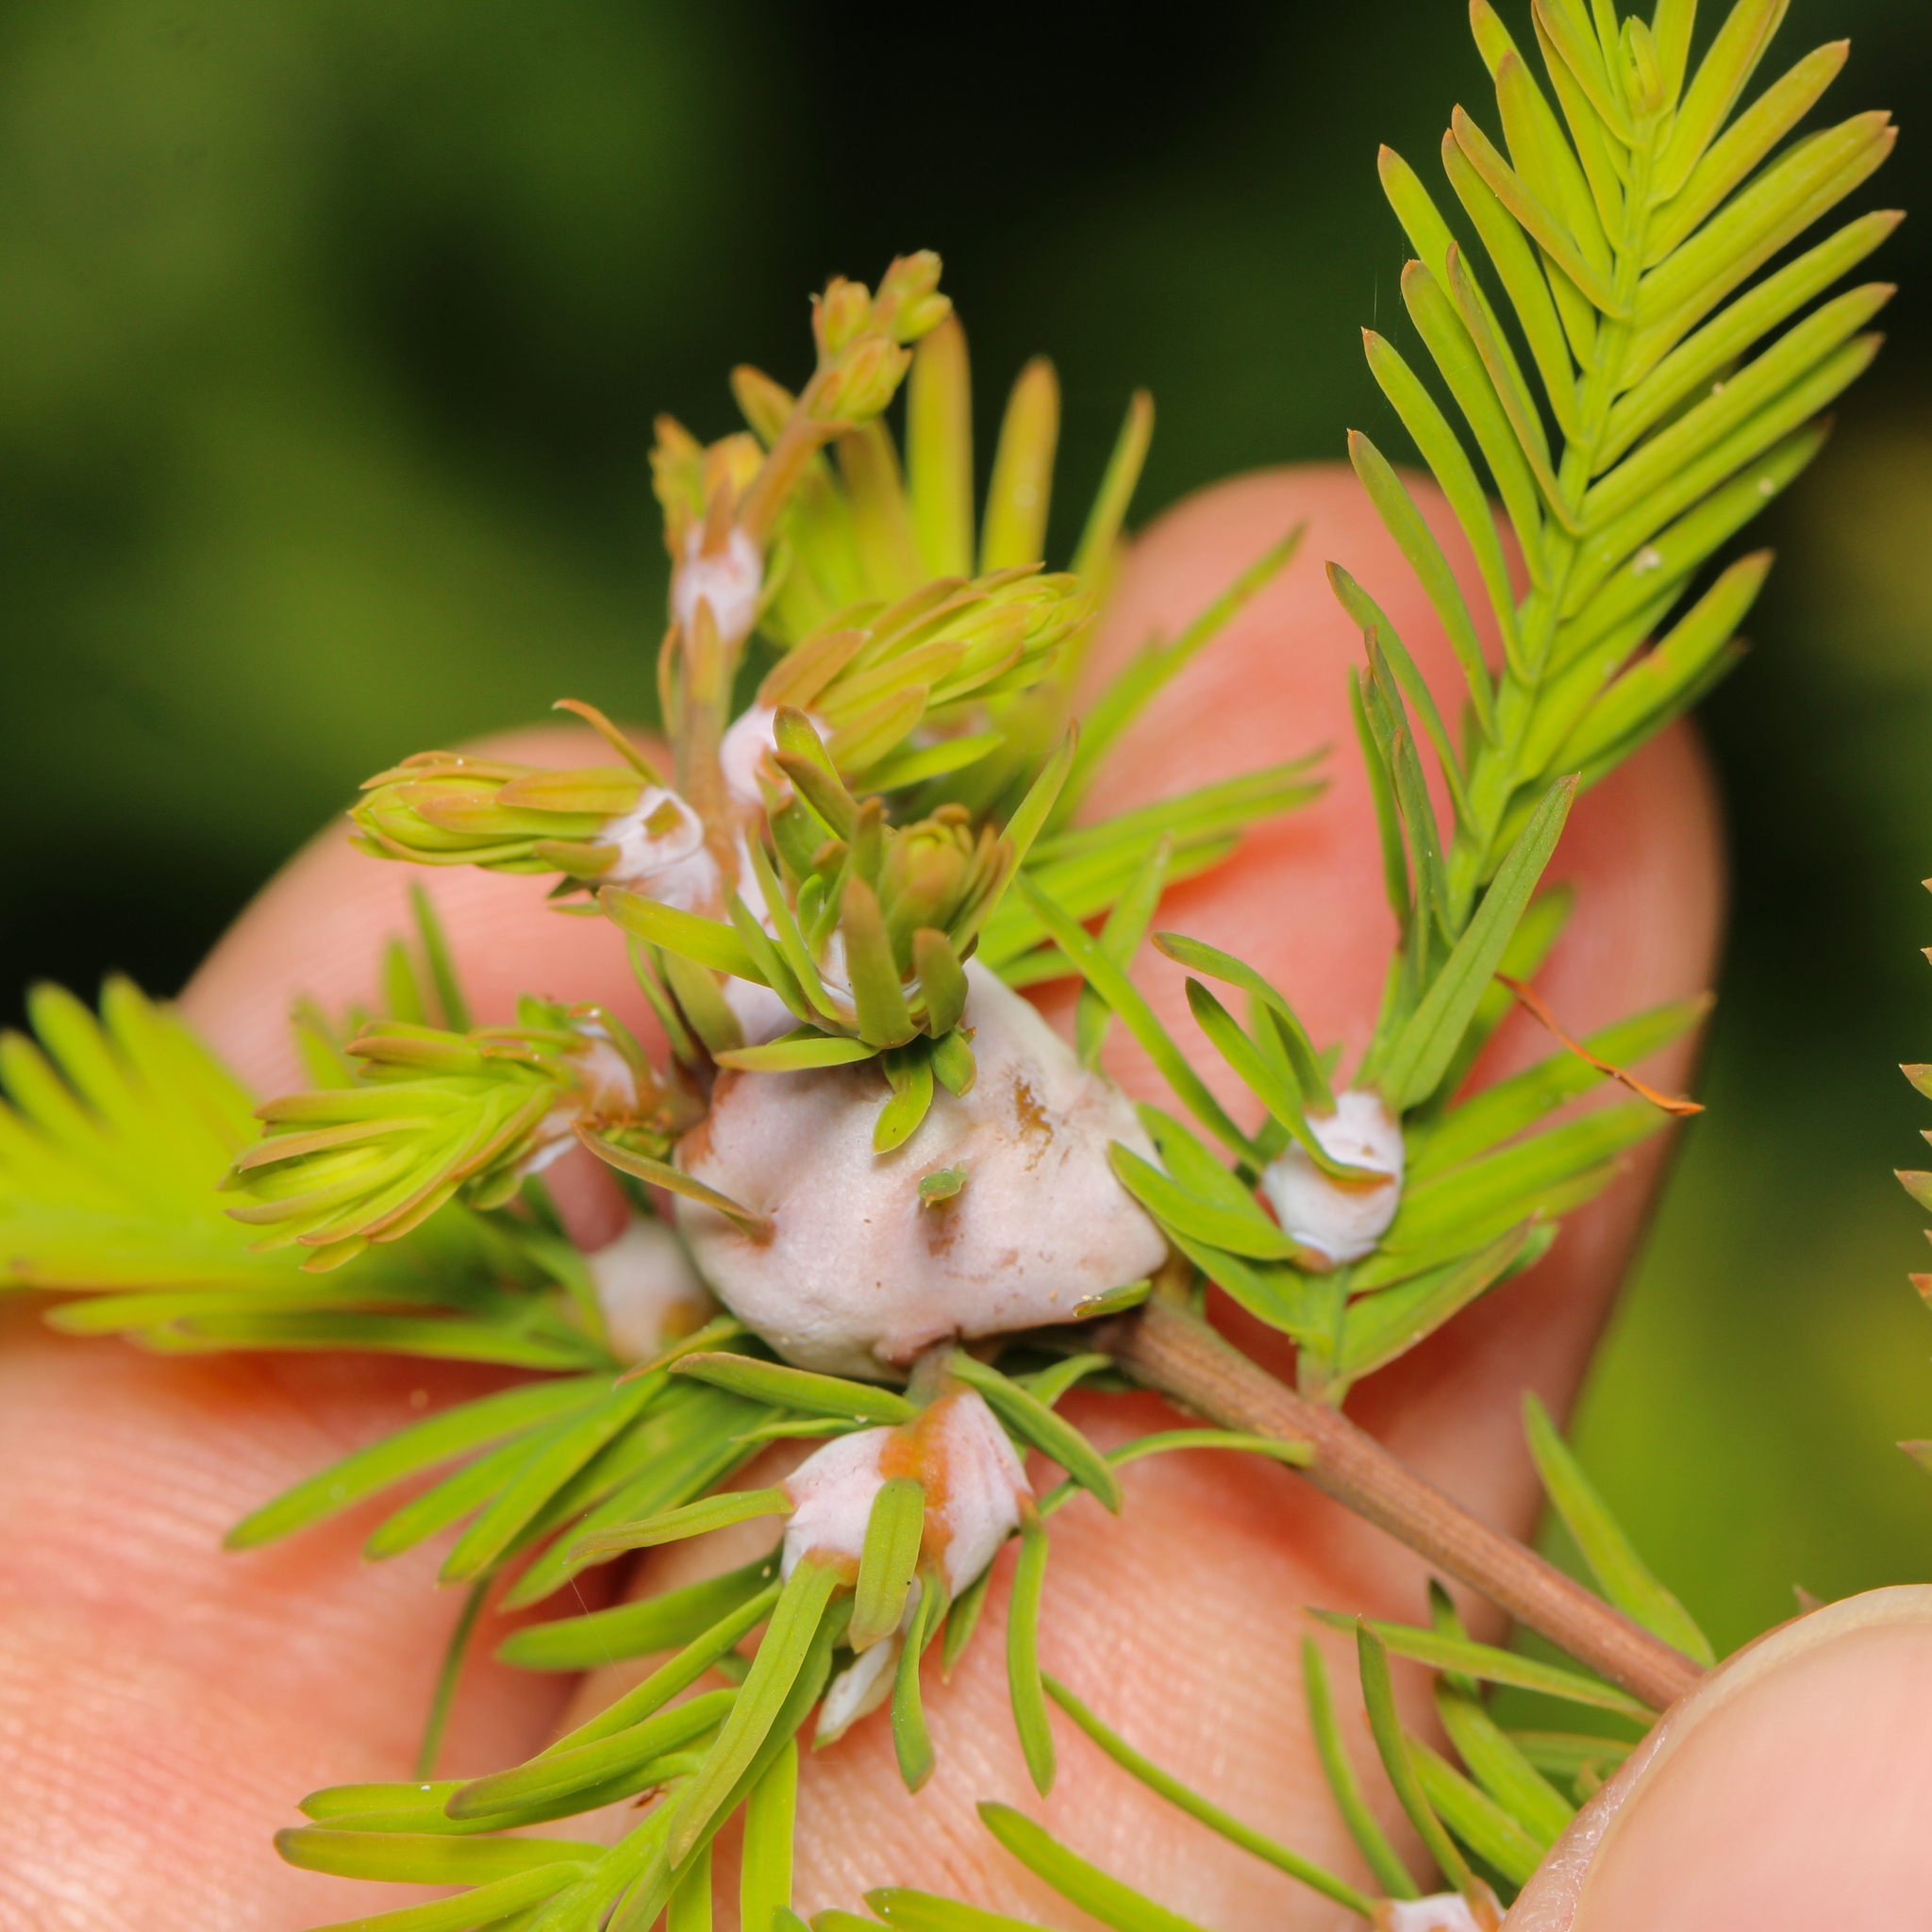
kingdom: Animalia
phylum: Arthropoda
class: Insecta
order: Diptera
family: Cecidomyiidae
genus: Taxodiomyia
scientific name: Taxodiomyia cupressiananassa
